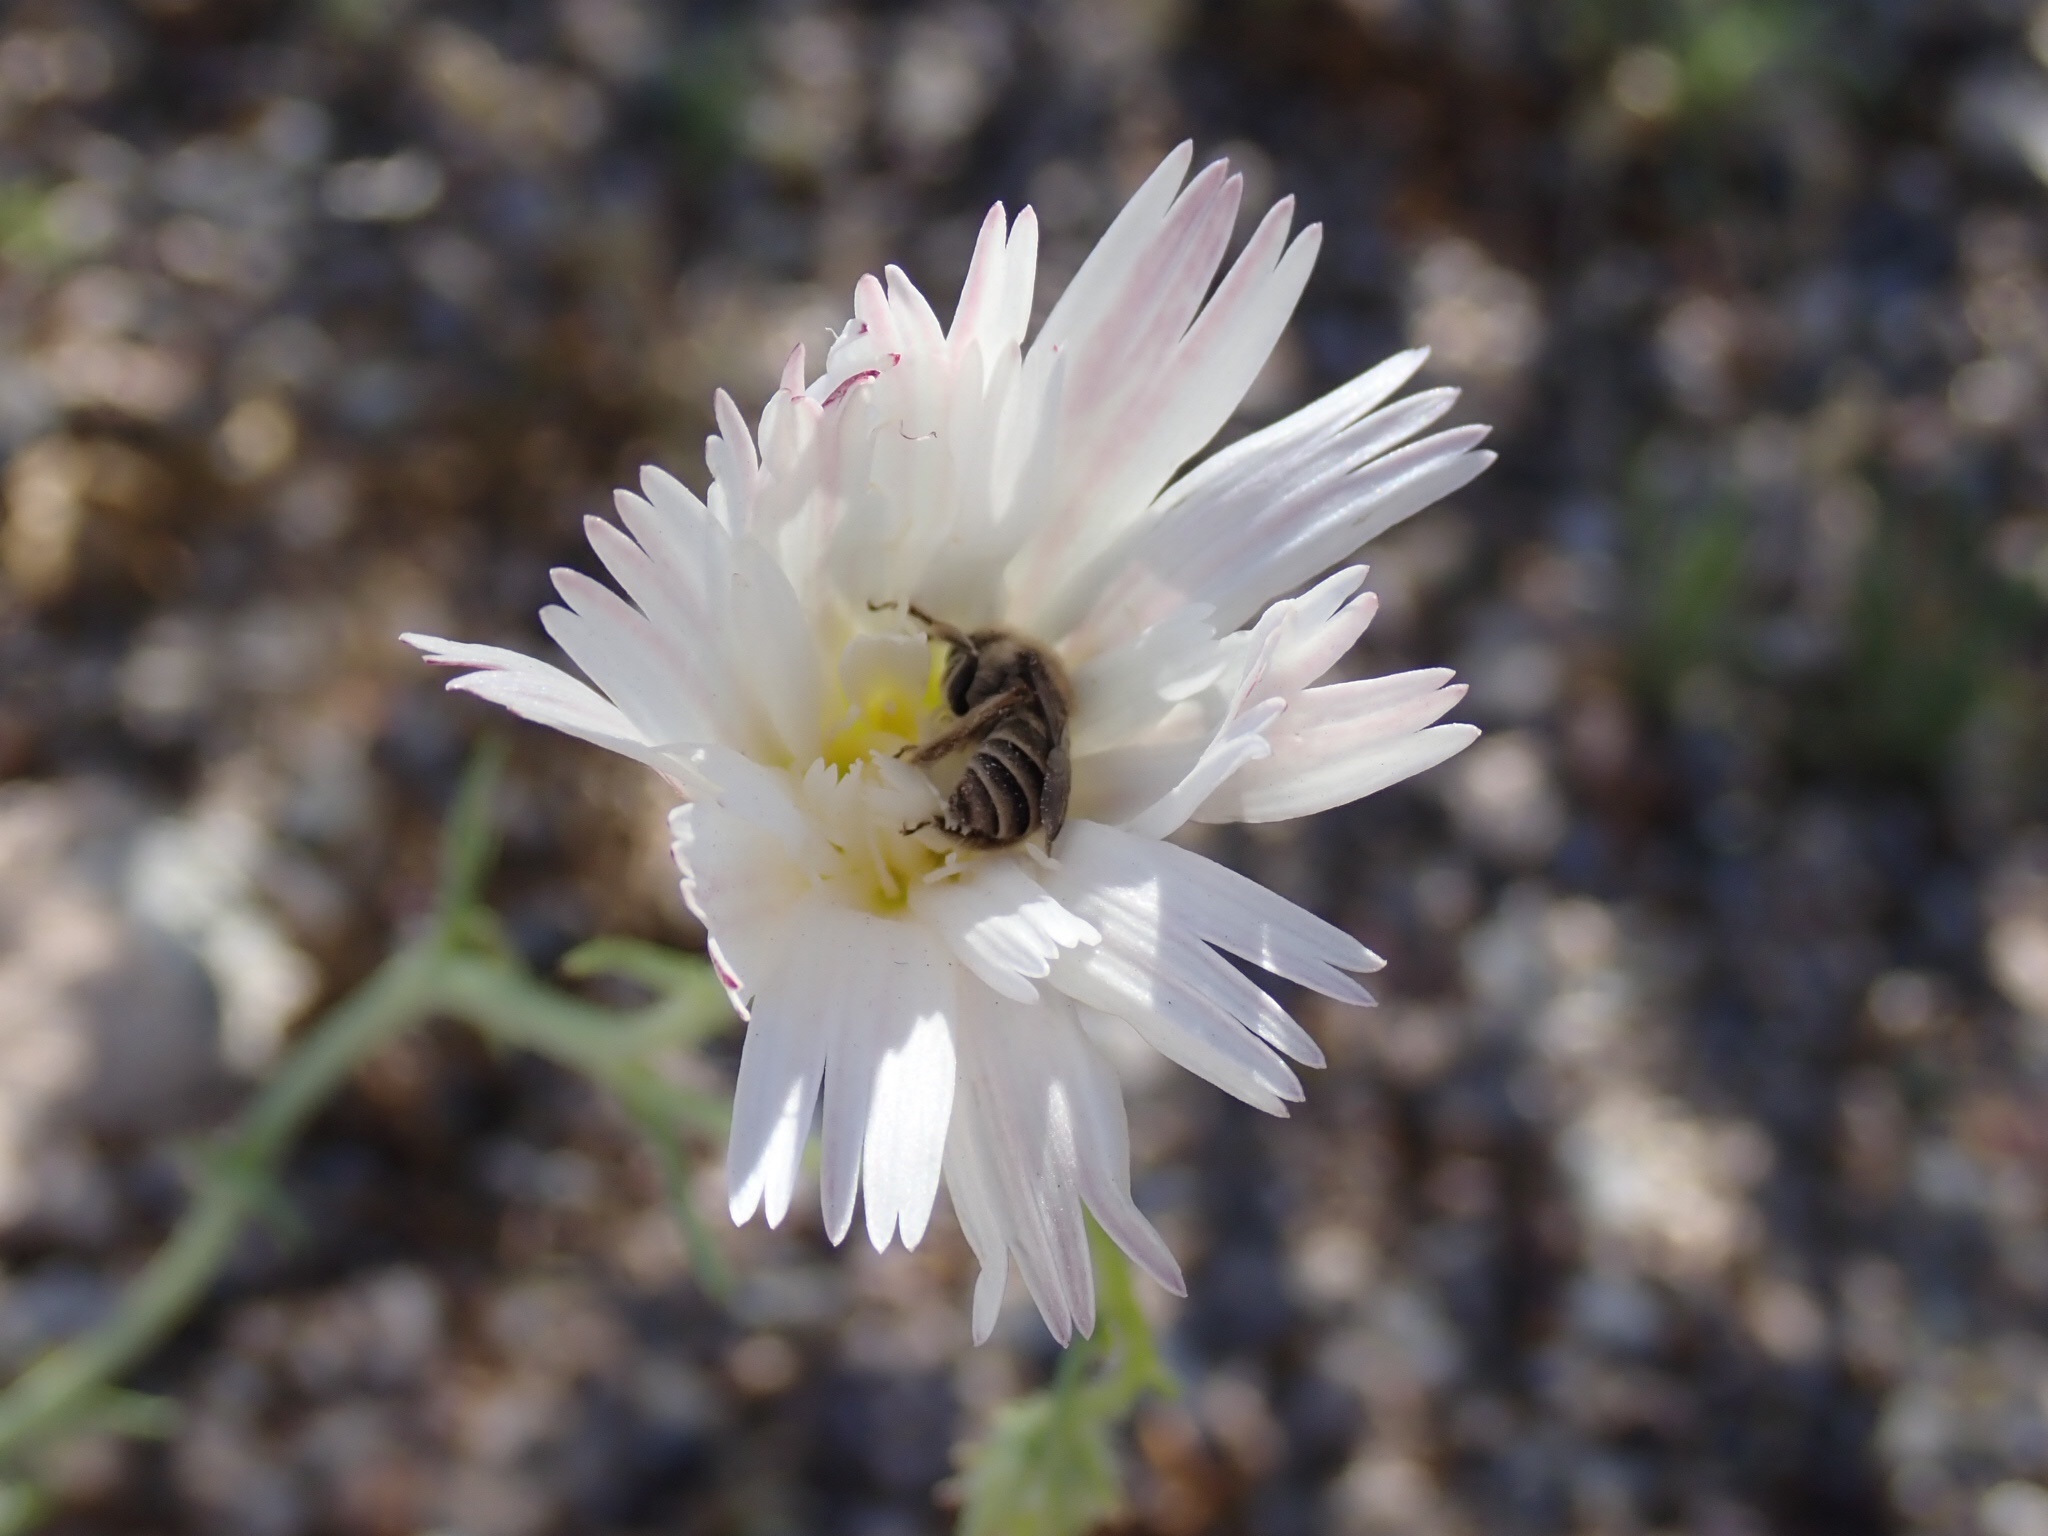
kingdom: Plantae
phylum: Tracheophyta
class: Magnoliopsida
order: Asterales
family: Asteraceae
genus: Rafinesquia
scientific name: Rafinesquia neomexicana
